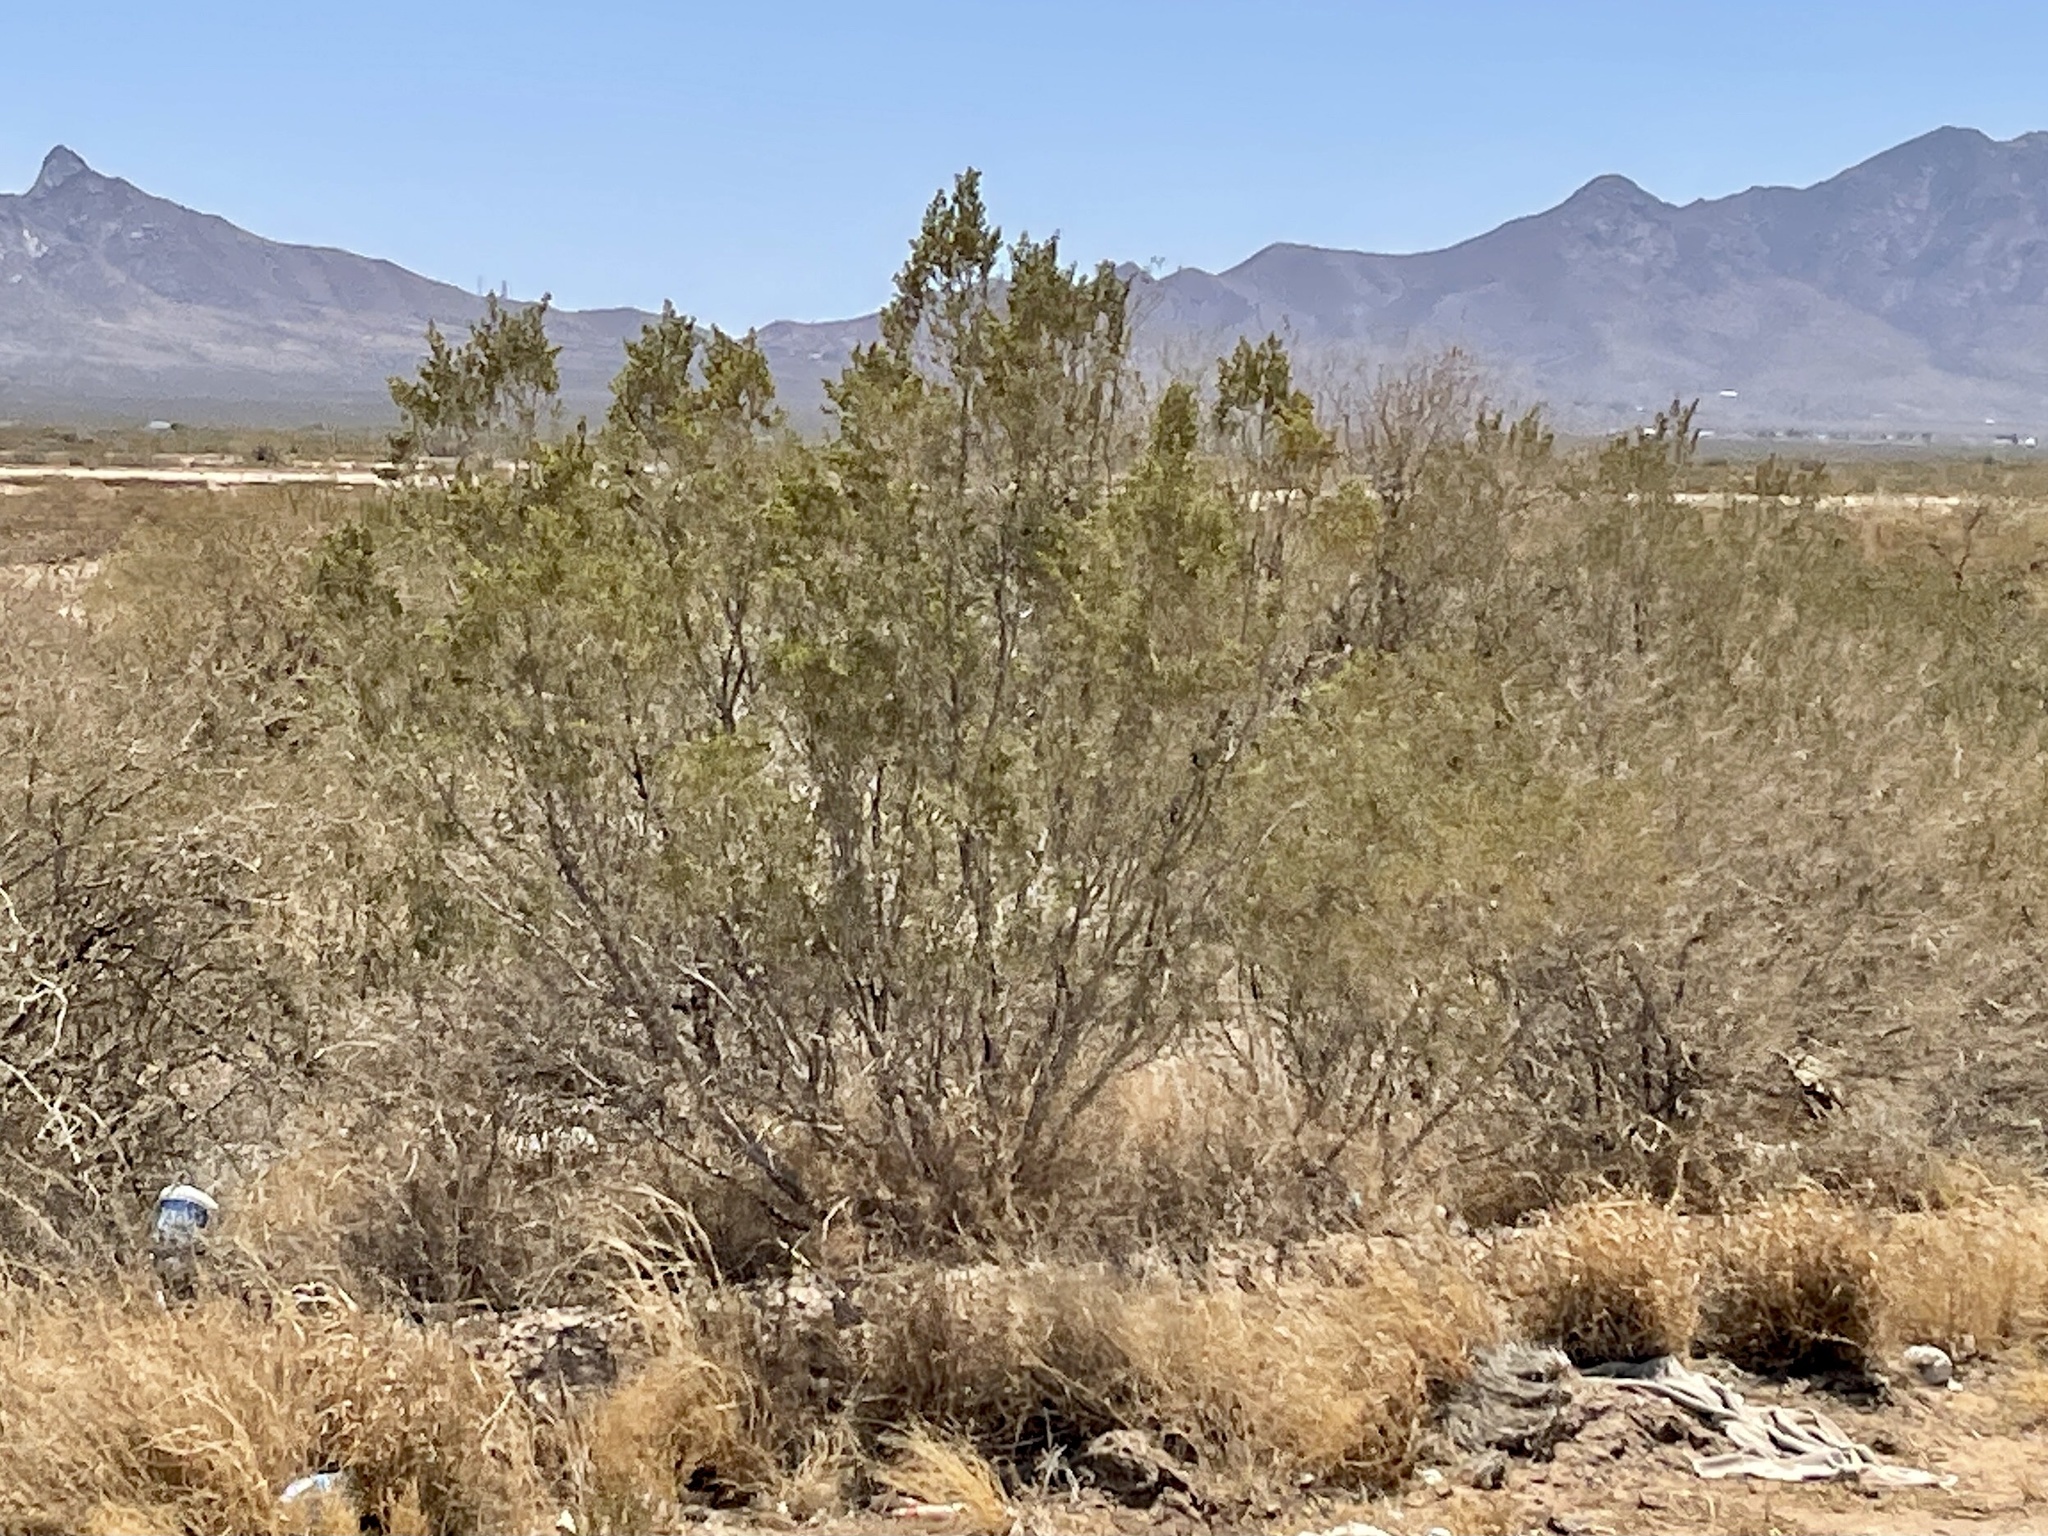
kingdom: Plantae
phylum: Tracheophyta
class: Magnoliopsida
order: Zygophyllales
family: Zygophyllaceae
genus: Larrea
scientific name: Larrea tridentata
